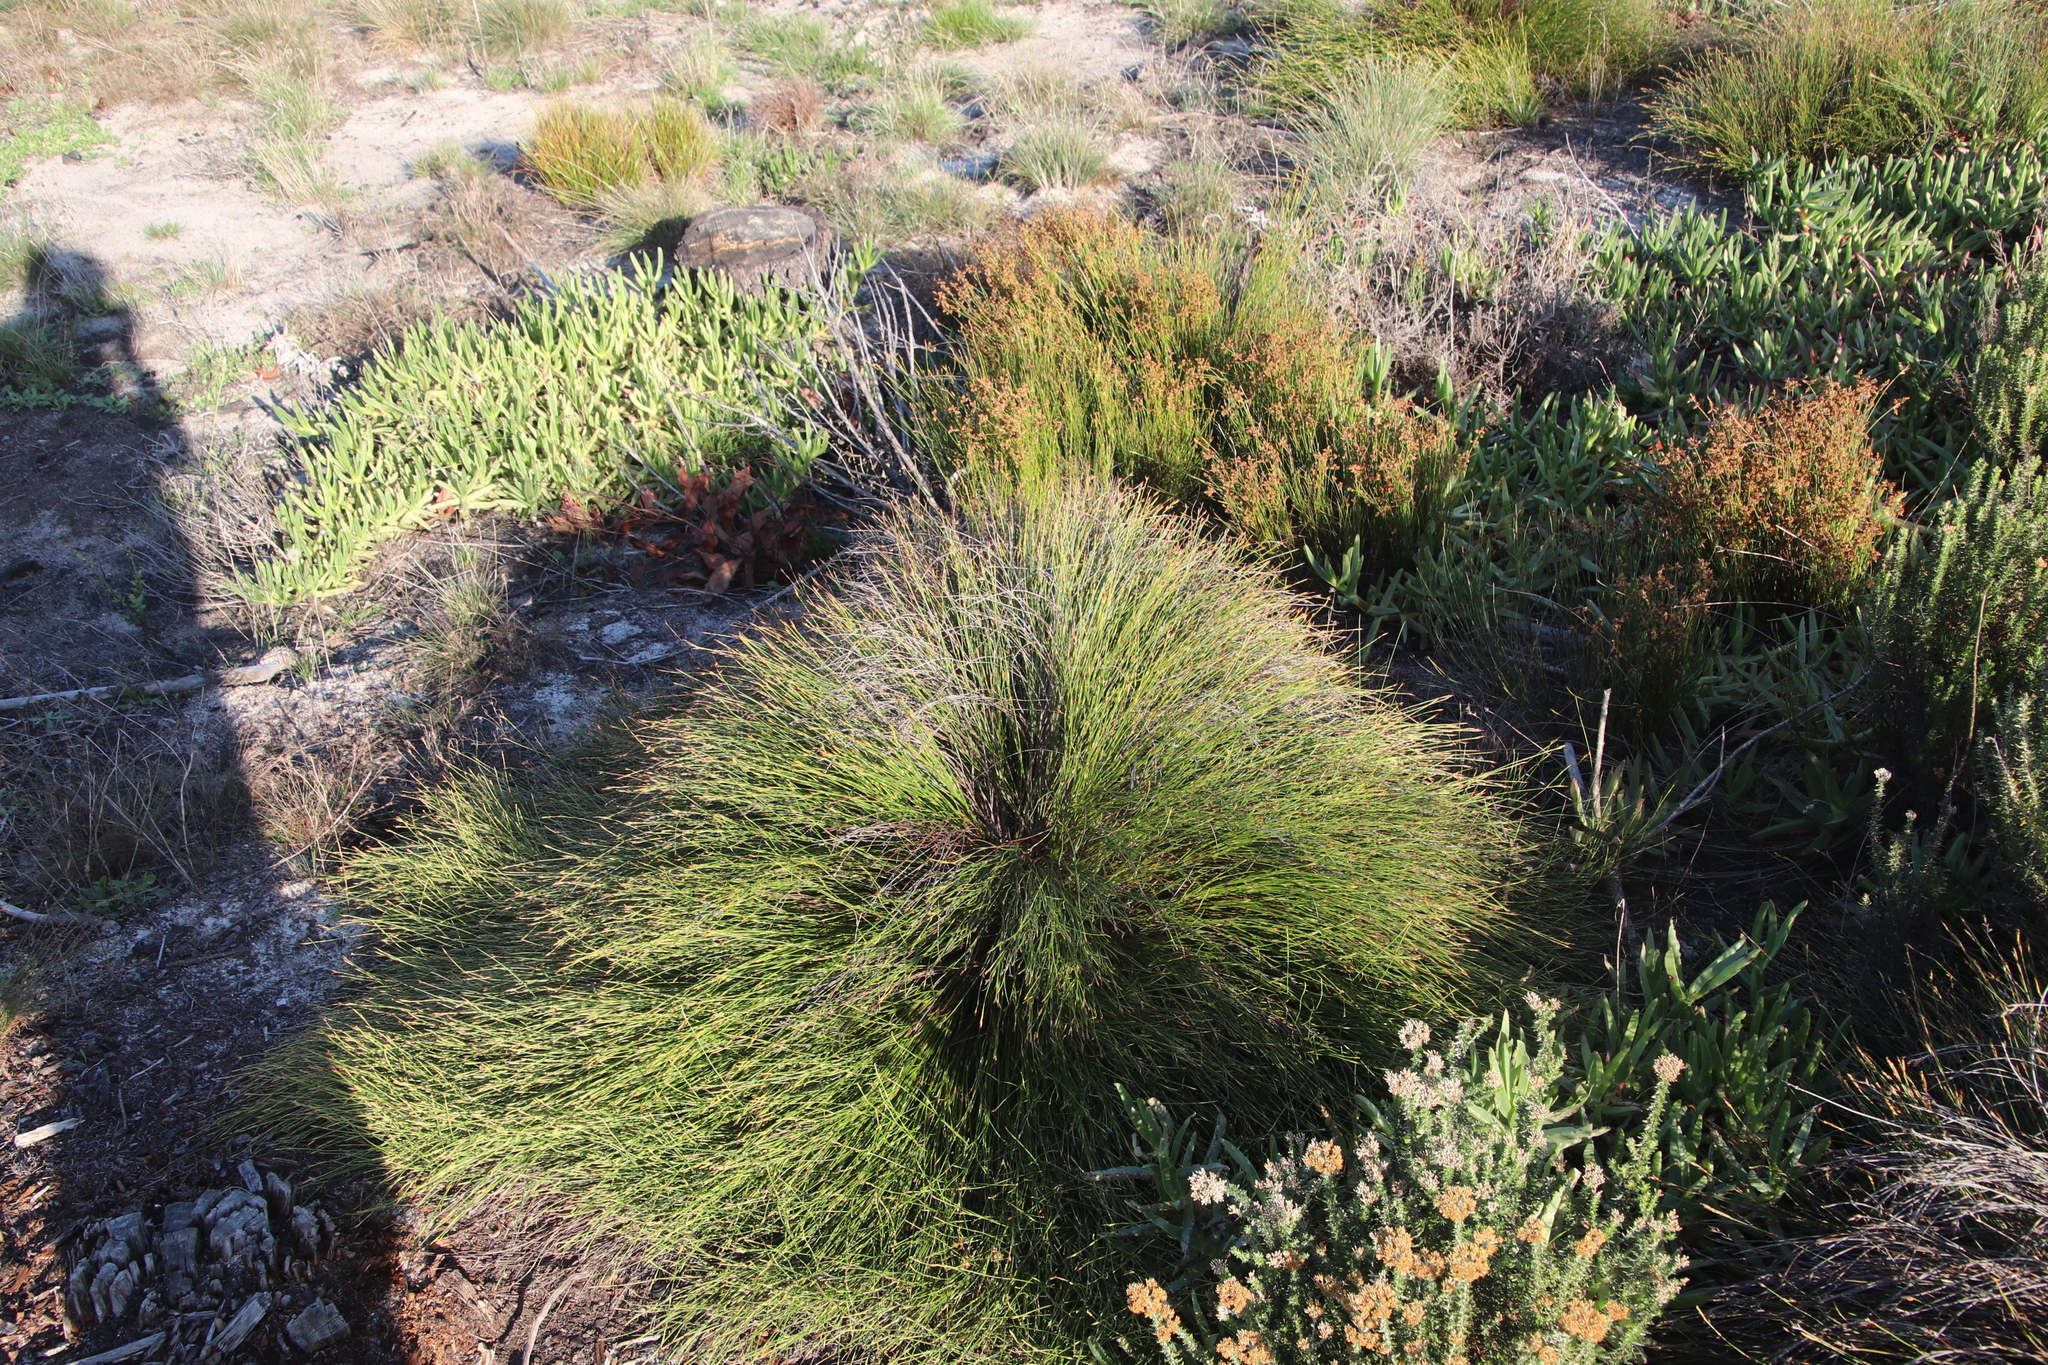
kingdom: Plantae
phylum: Tracheophyta
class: Liliopsida
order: Poales
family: Restionaceae
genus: Mastersiella
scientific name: Mastersiella digitata
